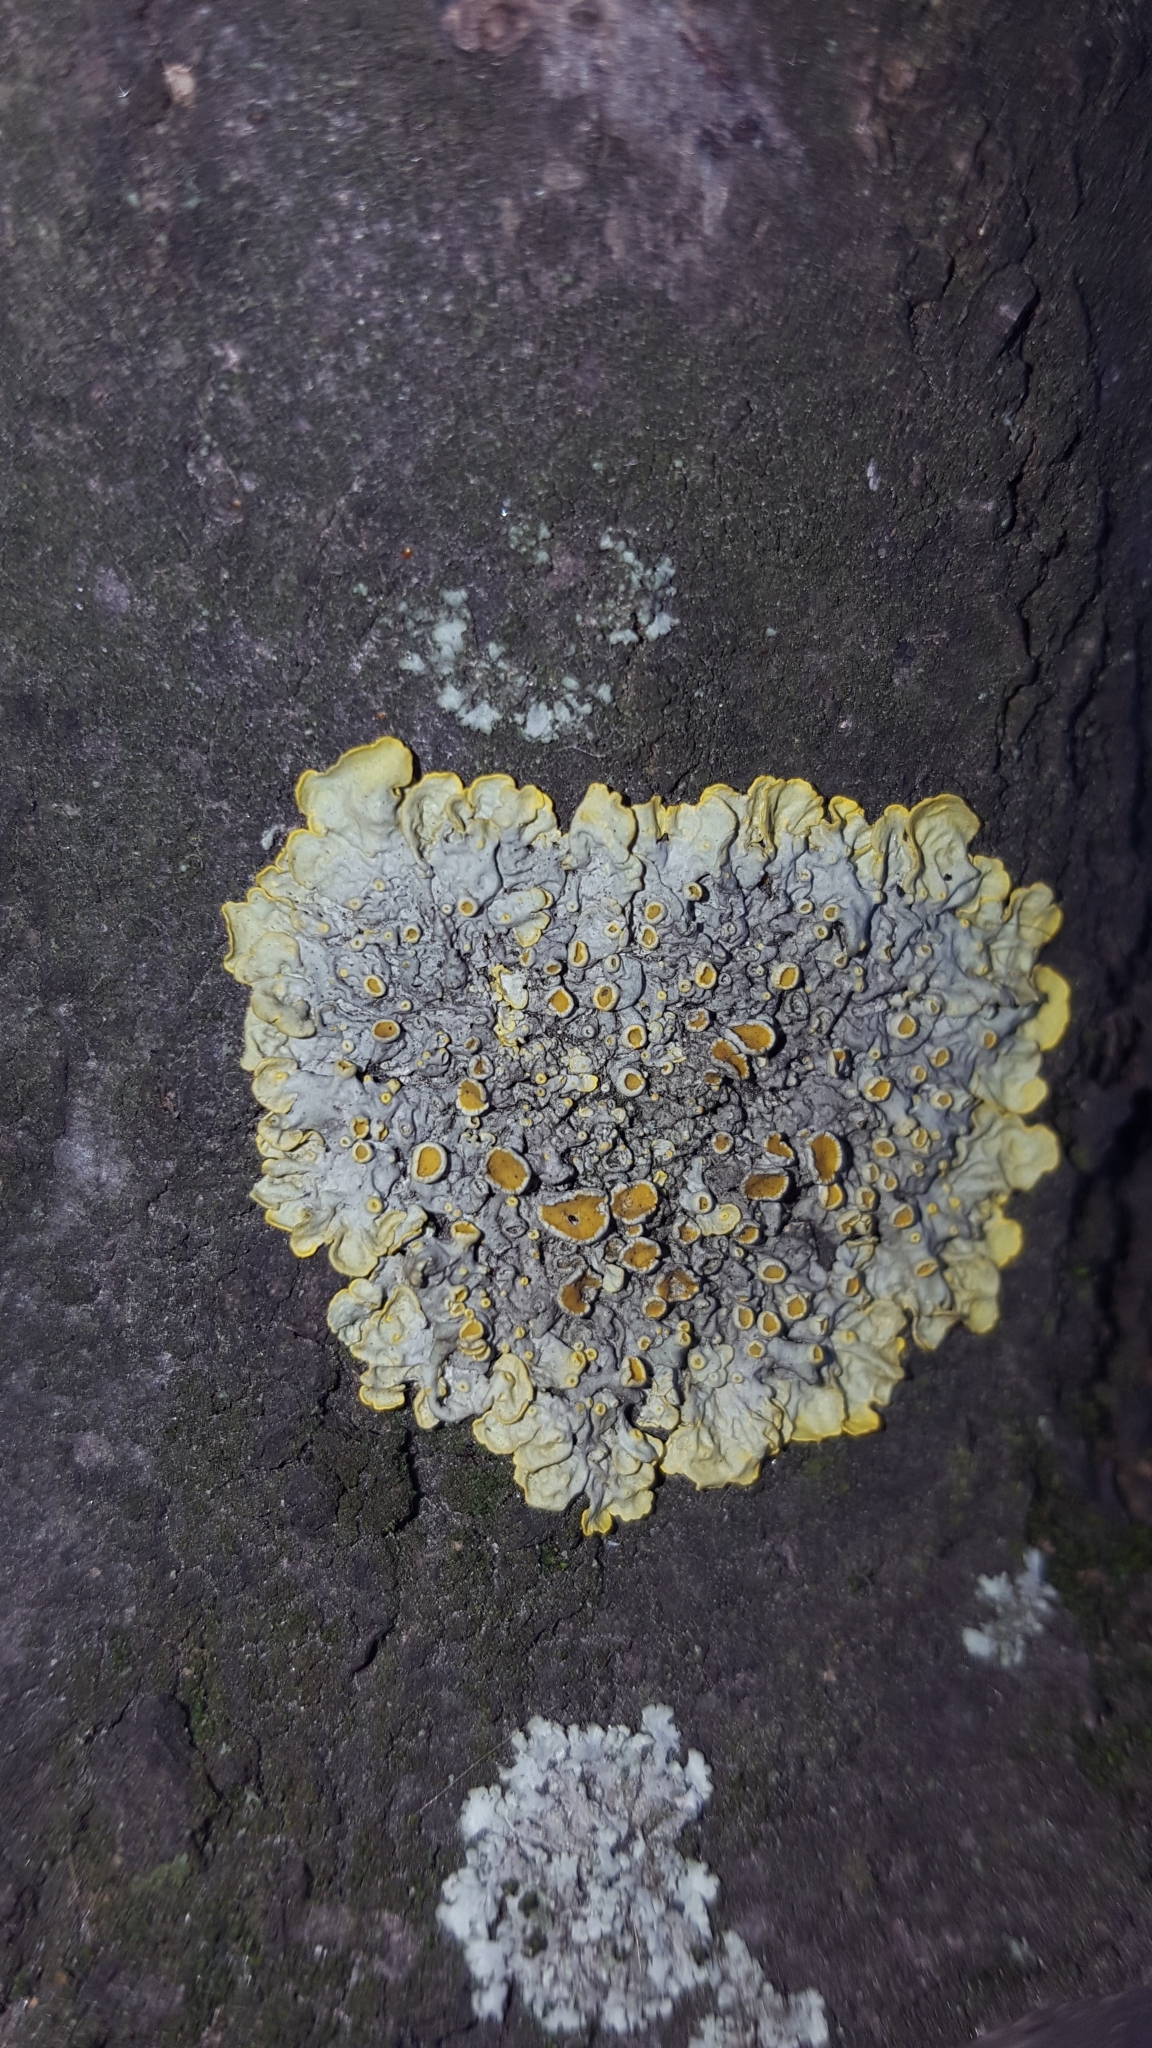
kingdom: Fungi
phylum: Ascomycota
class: Lecanoromycetes
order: Teloschistales
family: Teloschistaceae
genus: Xanthoria
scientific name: Xanthoria parietina
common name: Common orange lichen
